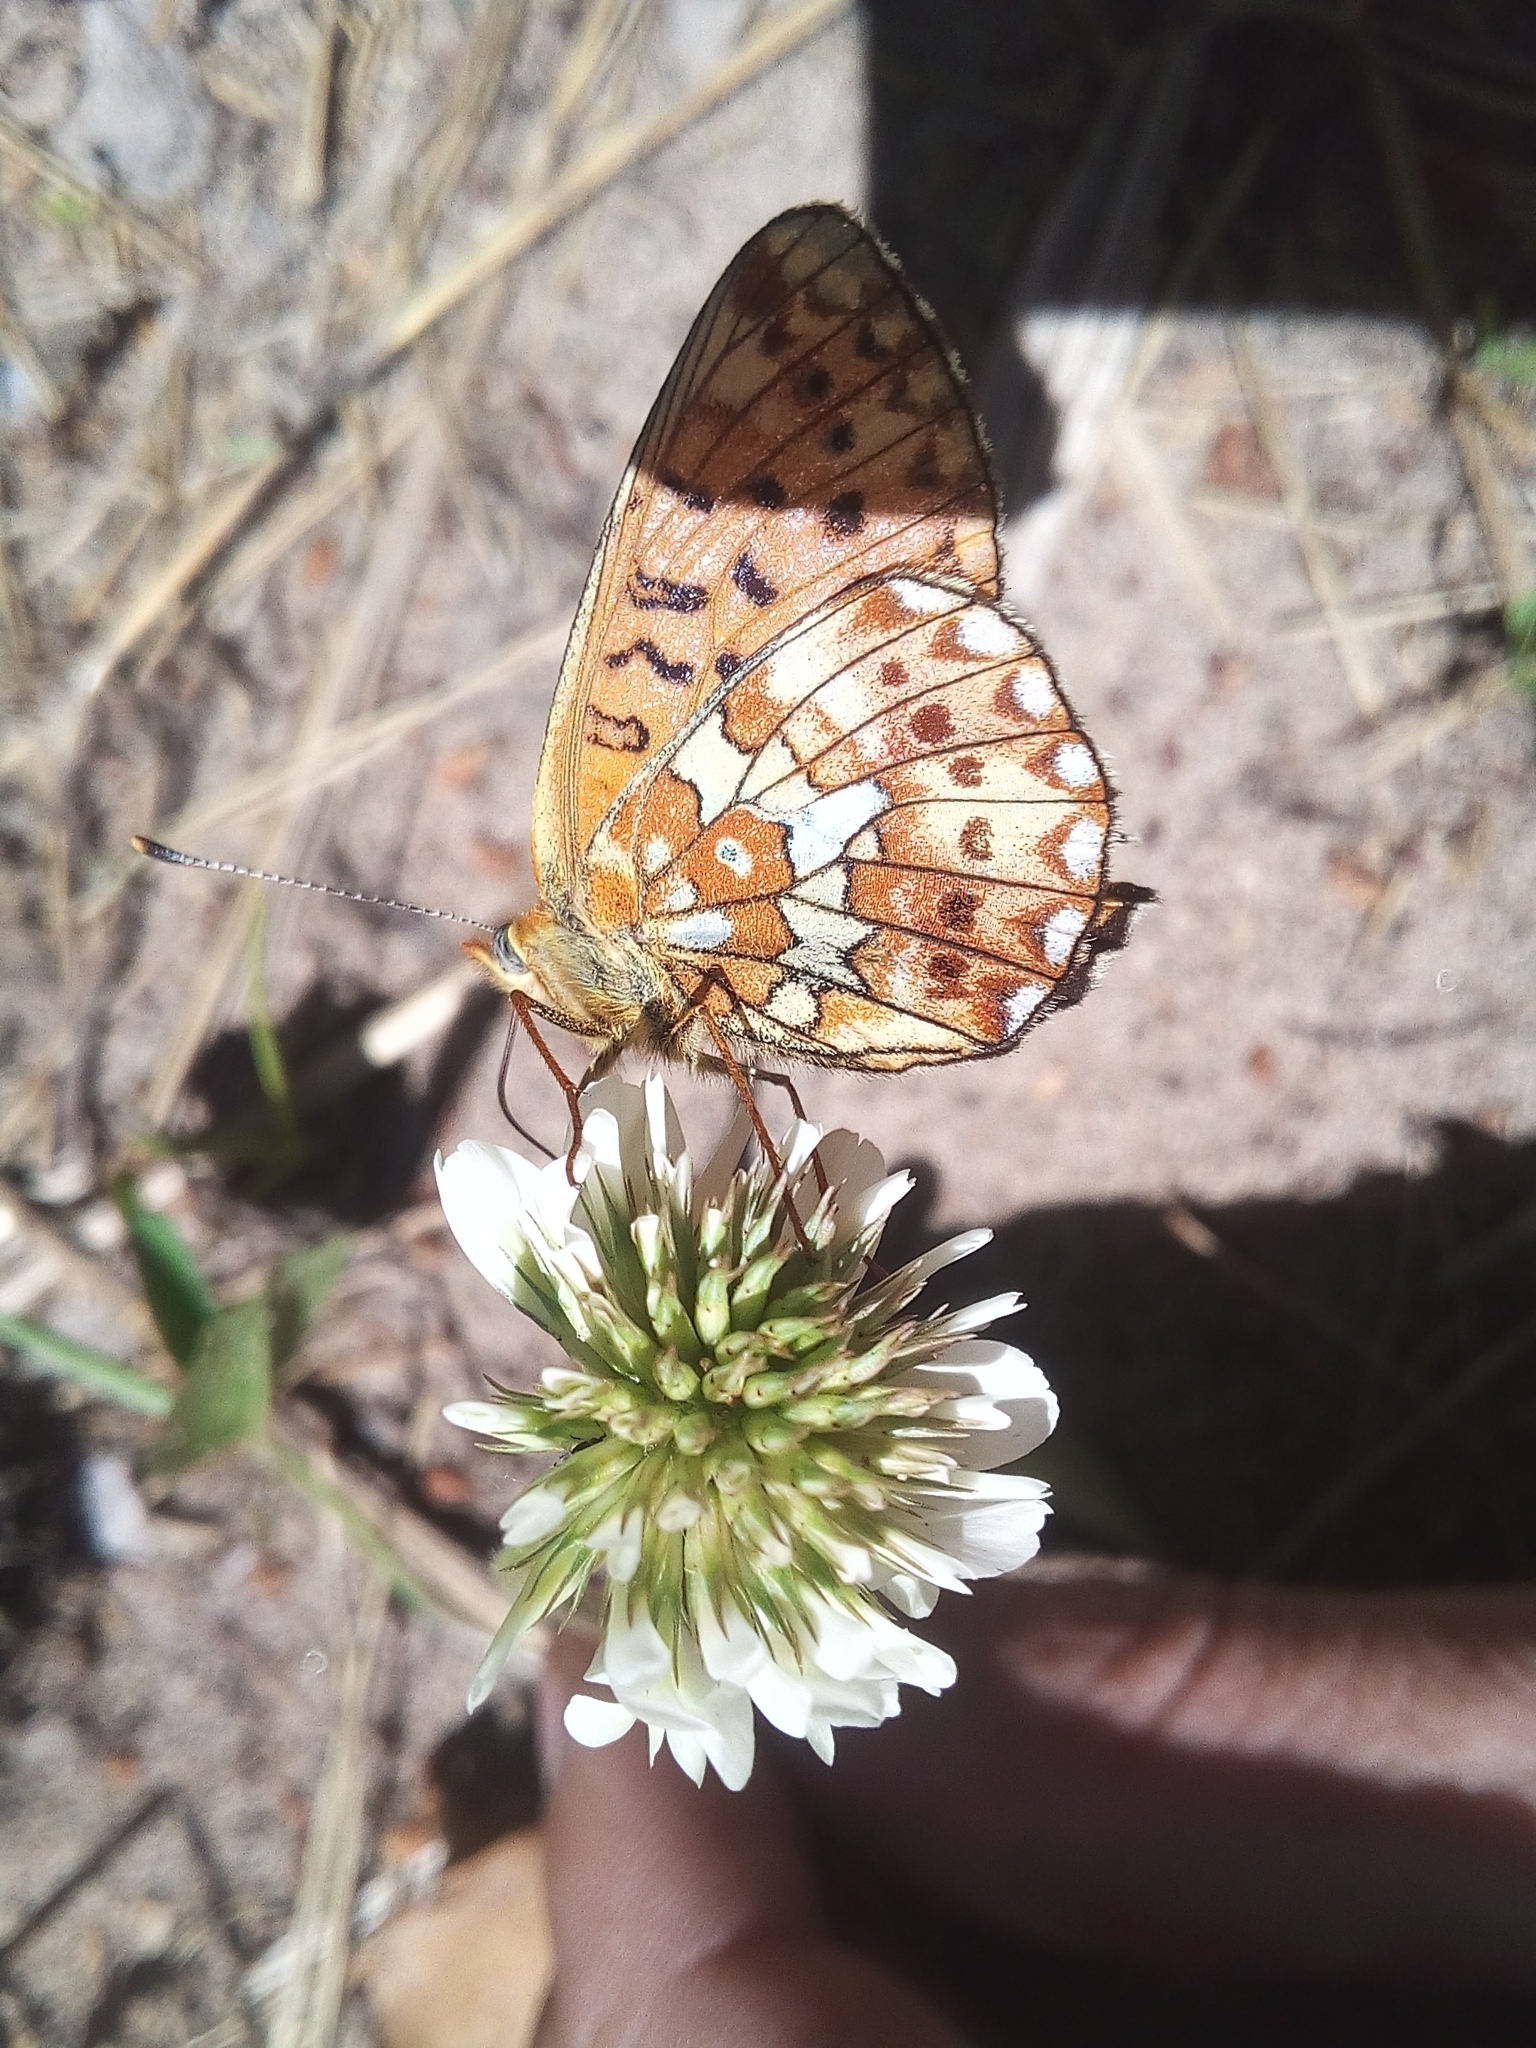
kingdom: Animalia
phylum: Arthropoda
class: Insecta
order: Lepidoptera
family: Nymphalidae
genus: Clossiana
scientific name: Clossiana euphrosyne
